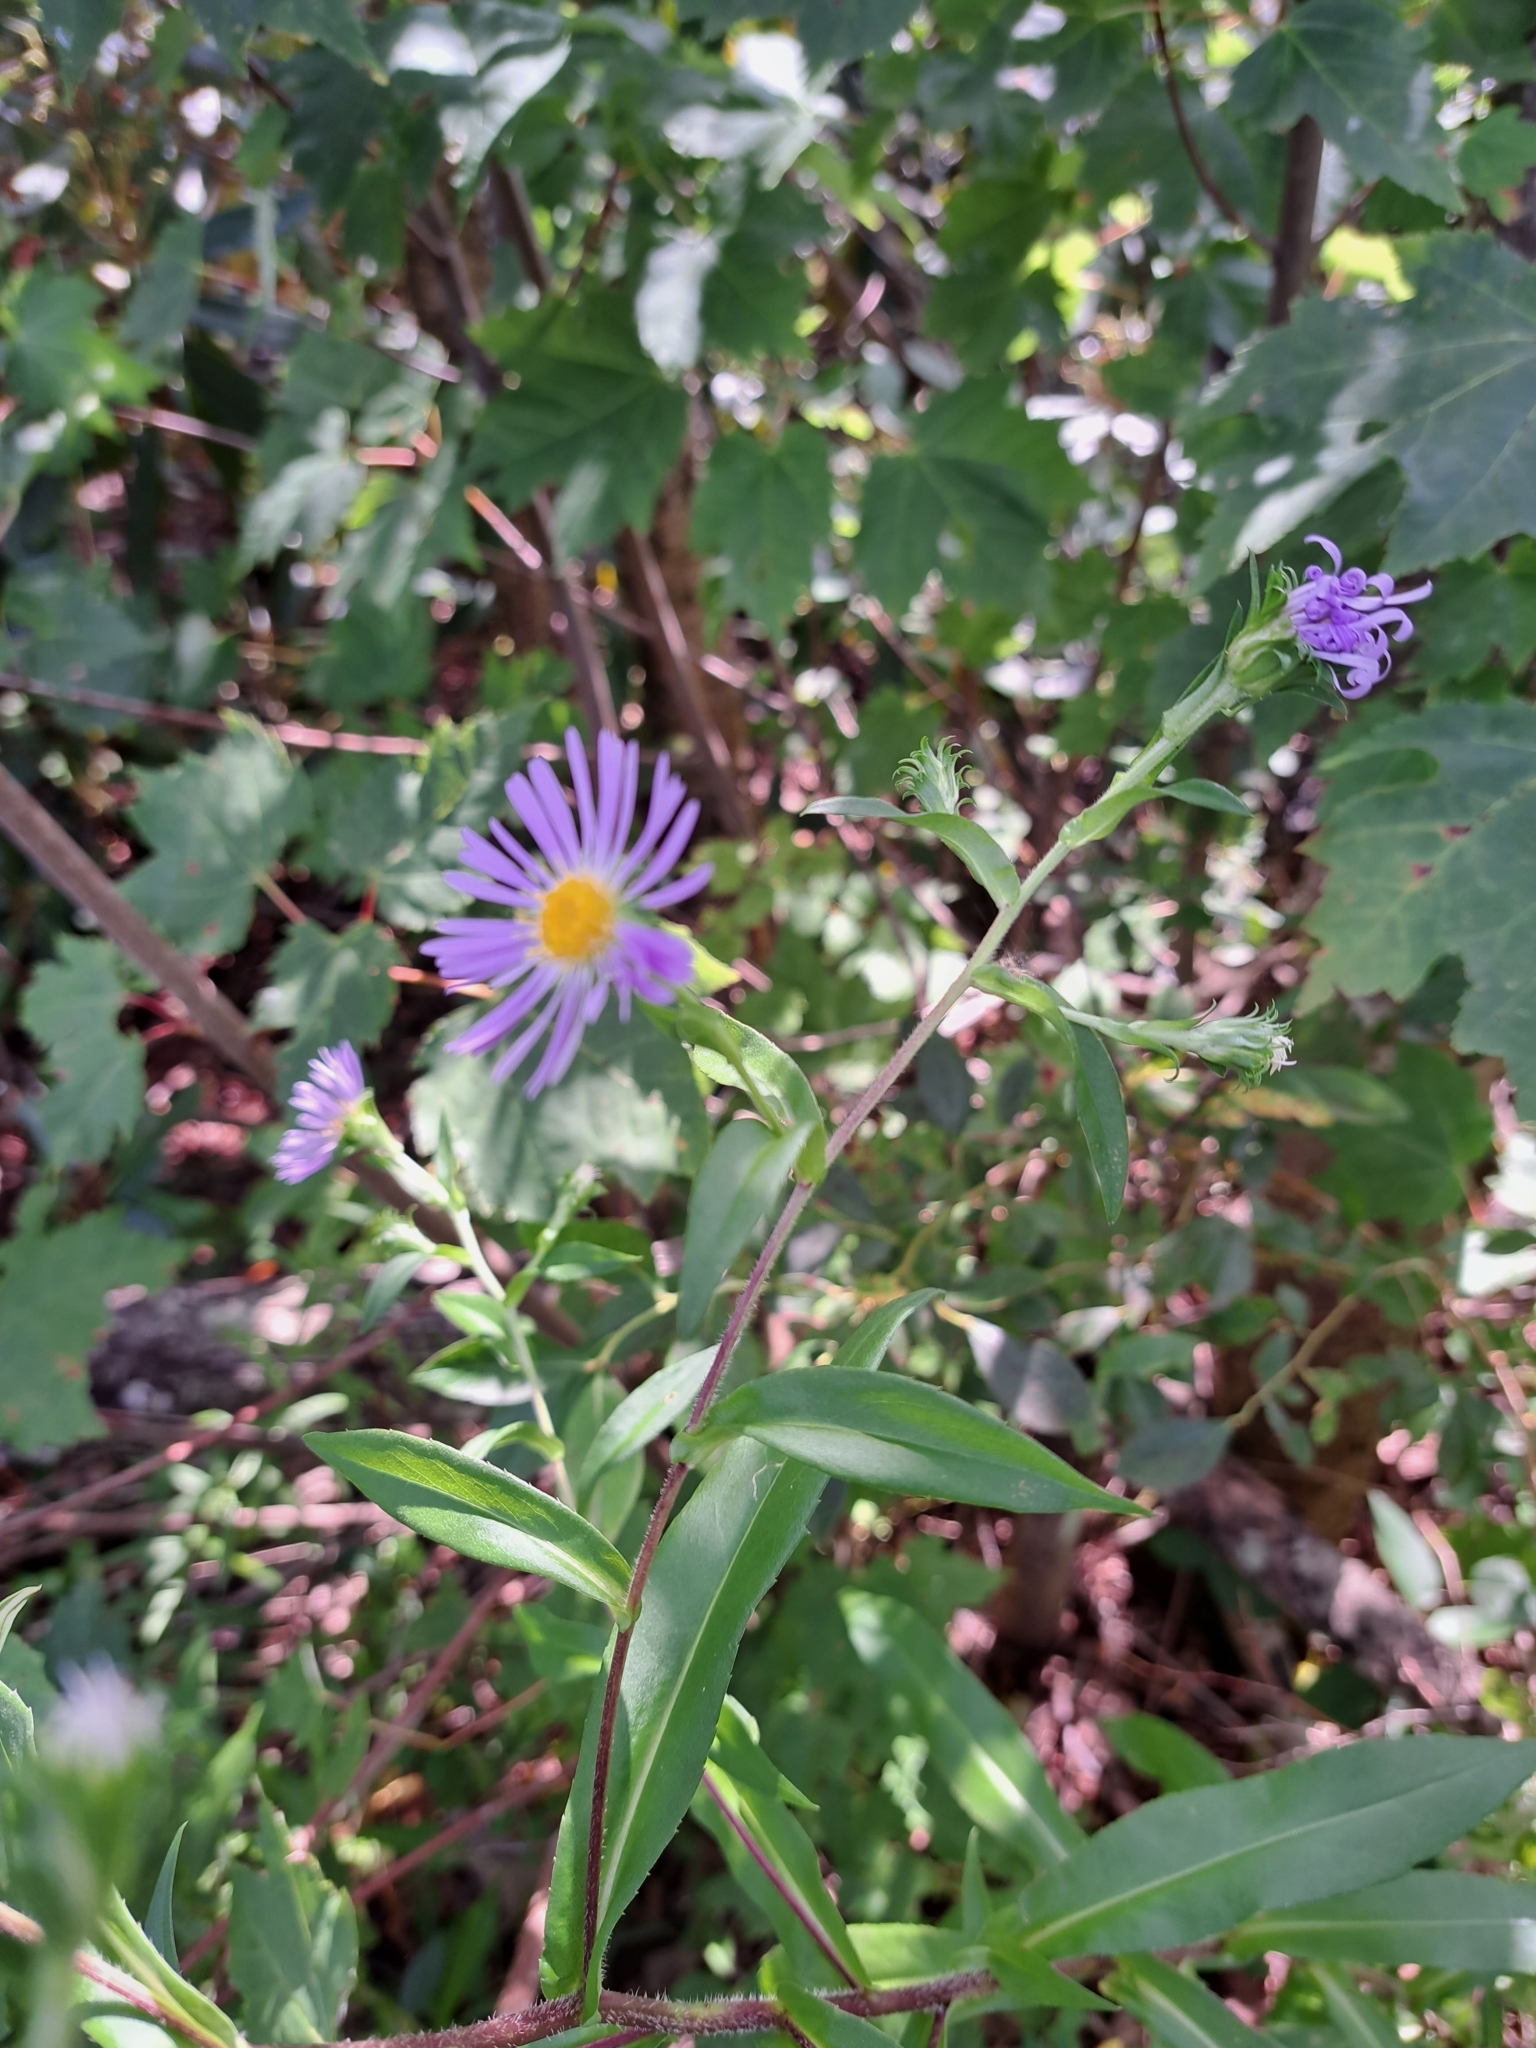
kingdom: Plantae
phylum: Tracheophyta
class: Magnoliopsida
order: Asterales
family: Asteraceae
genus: Symphyotrichum
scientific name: Symphyotrichum puniceum
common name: Bog aster
